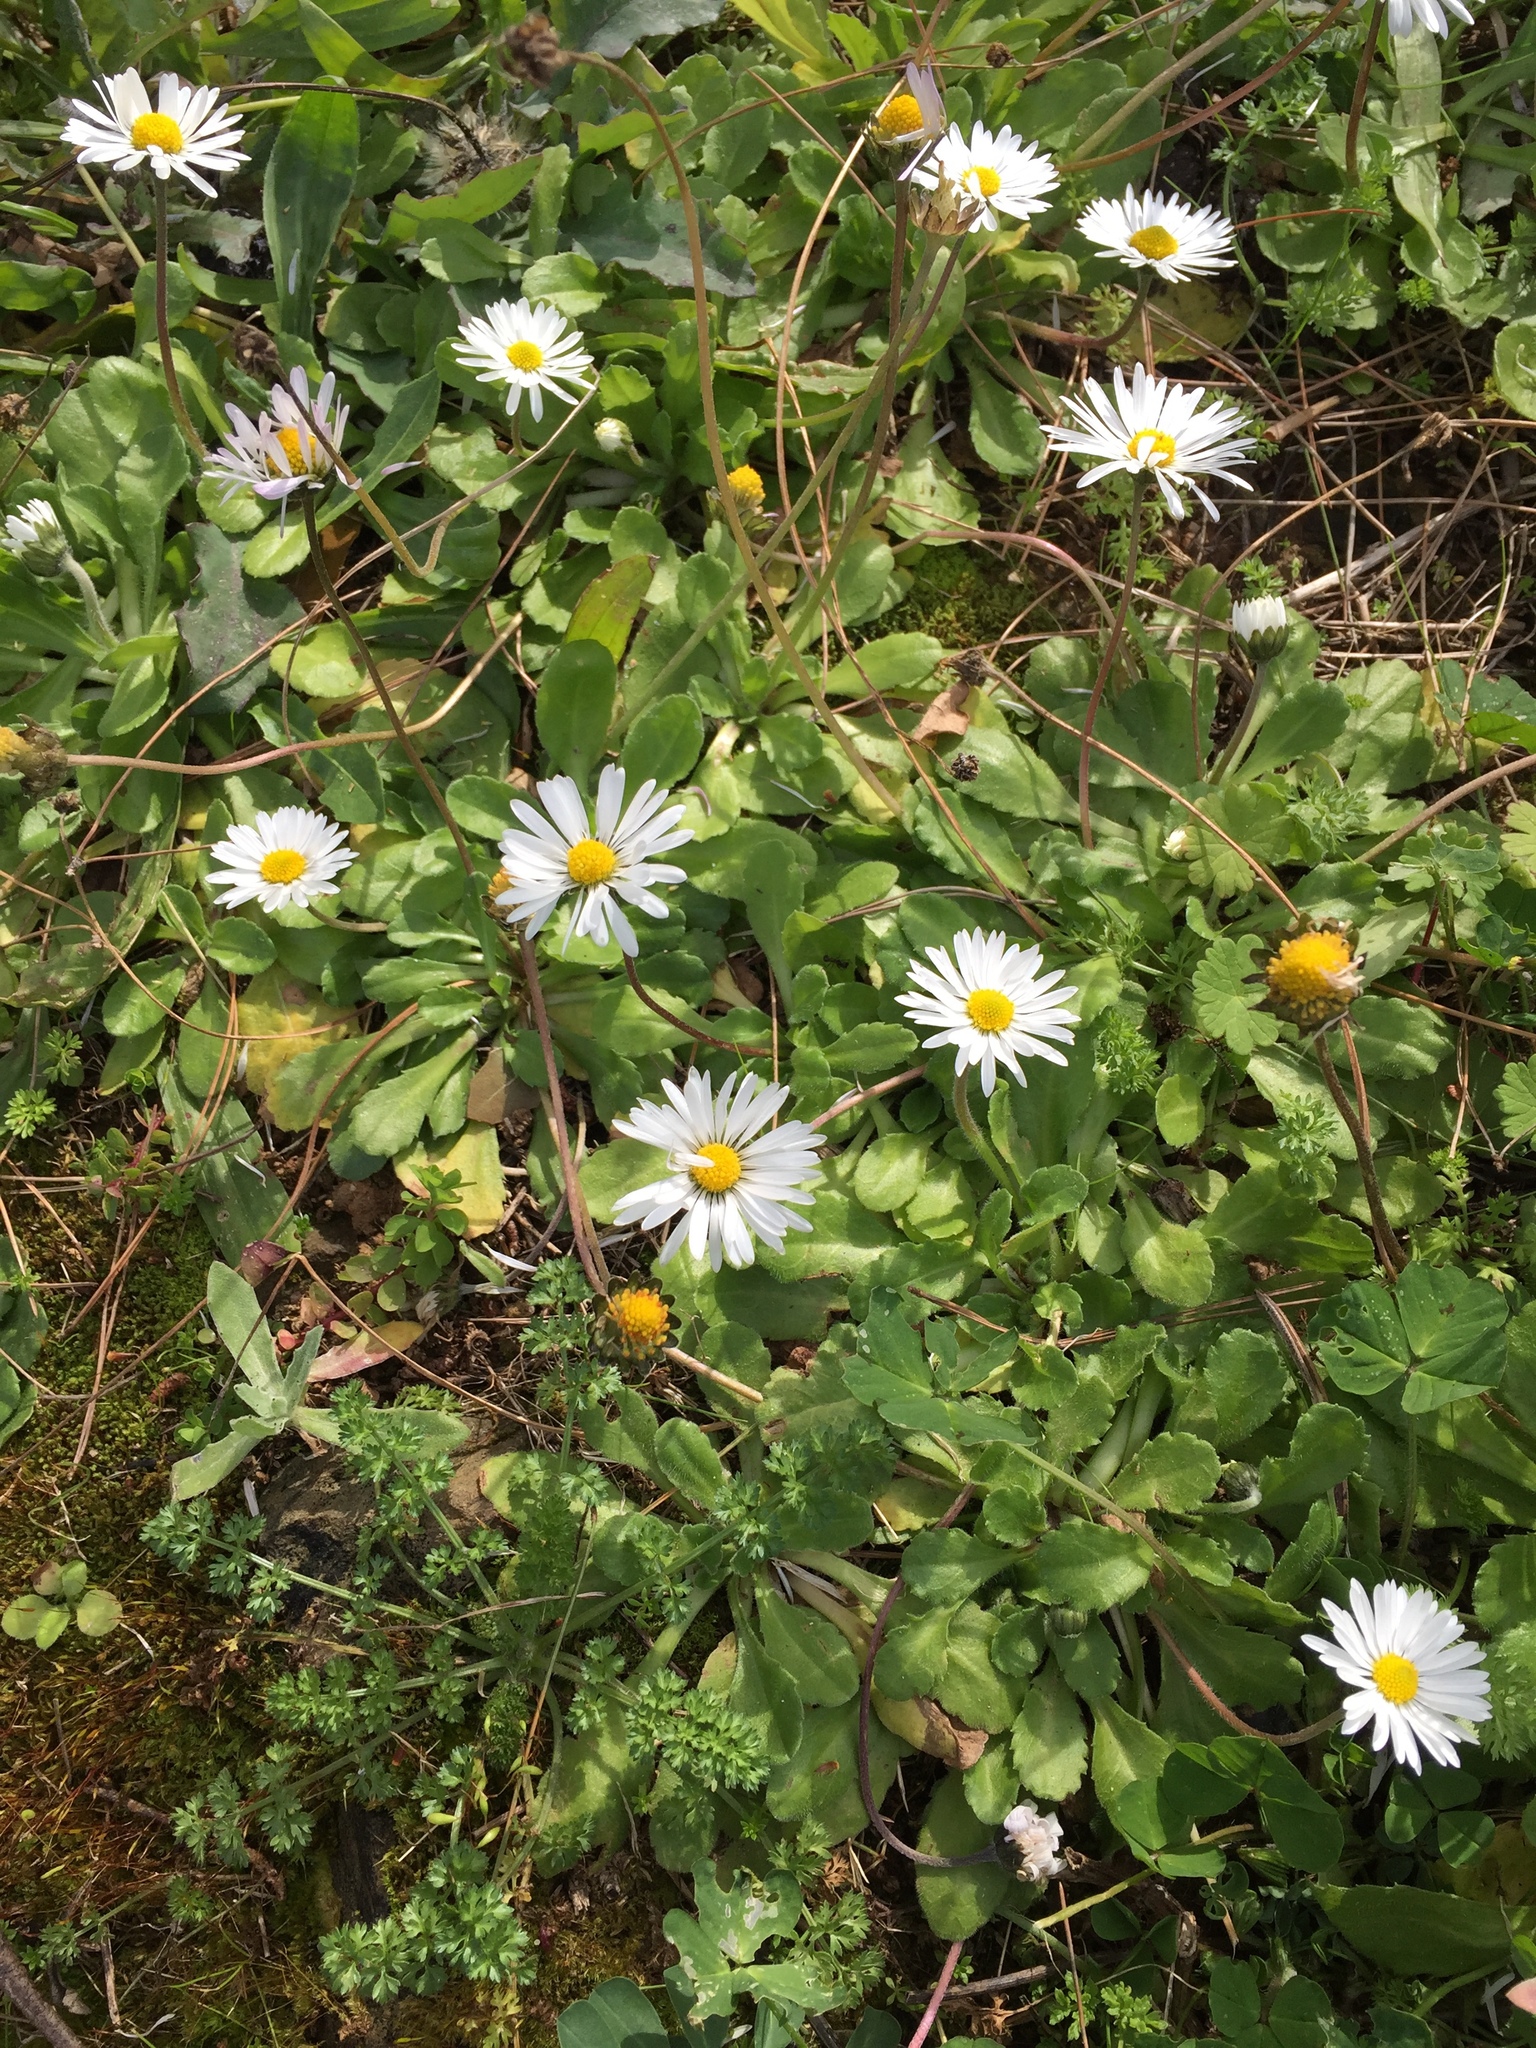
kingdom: Plantae
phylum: Tracheophyta
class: Magnoliopsida
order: Asterales
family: Asteraceae
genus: Bellis
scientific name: Bellis perennis
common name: Lawndaisy
